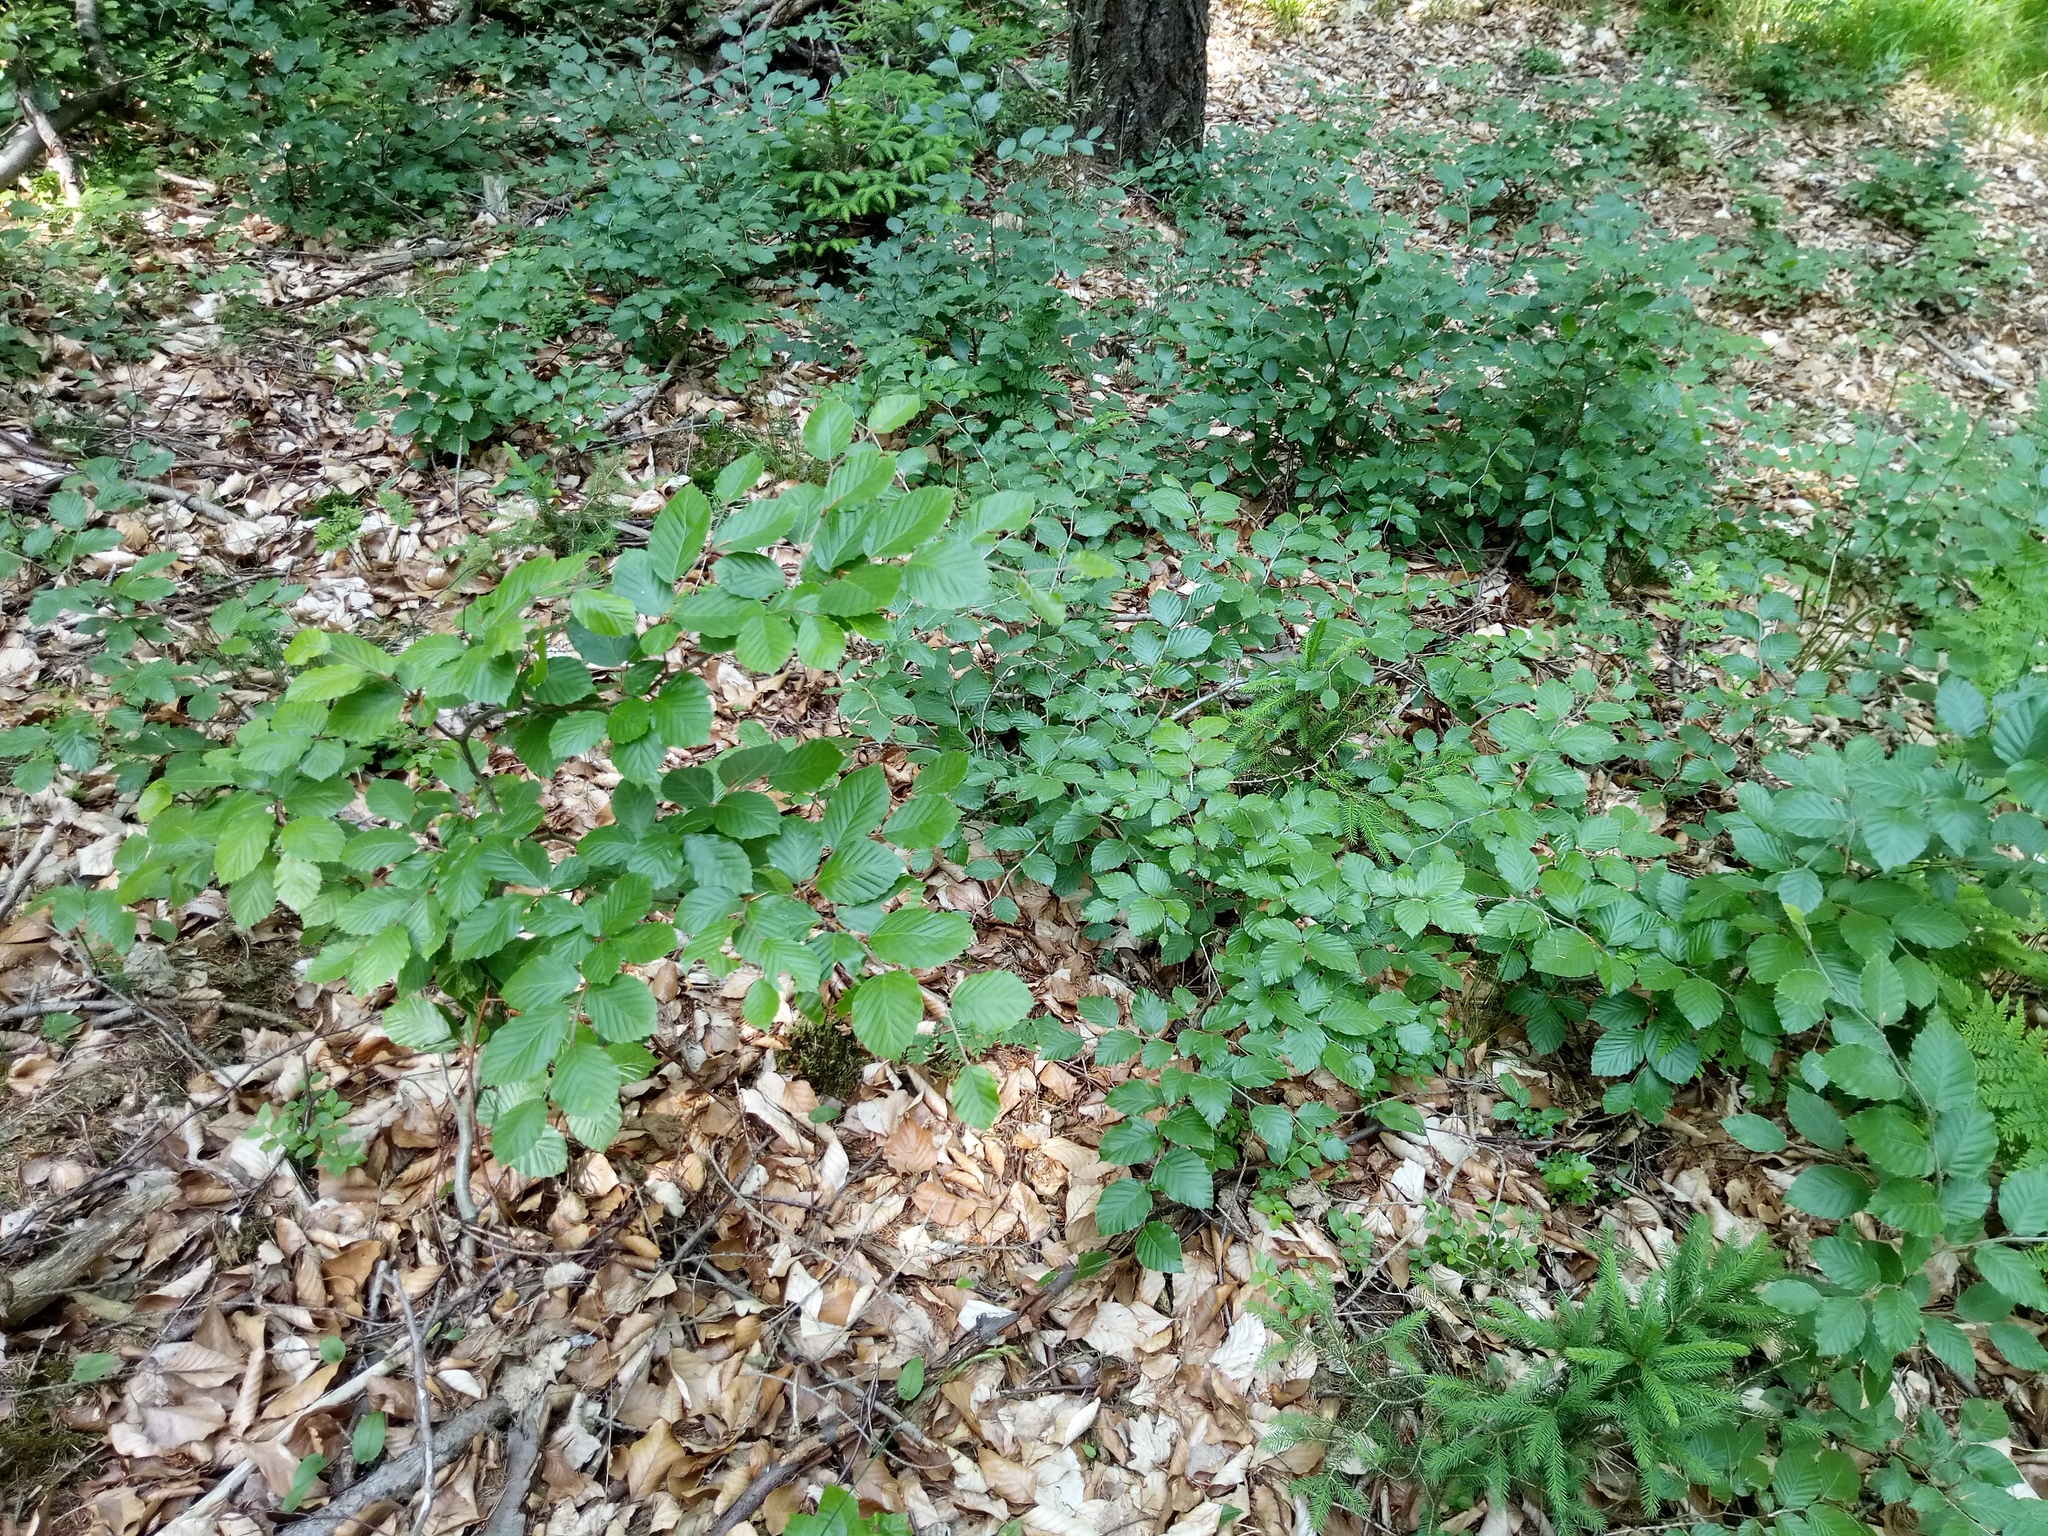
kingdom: Plantae
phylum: Tracheophyta
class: Magnoliopsida
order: Fagales
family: Fagaceae
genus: Fagus
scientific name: Fagus sylvatica
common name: Beech
